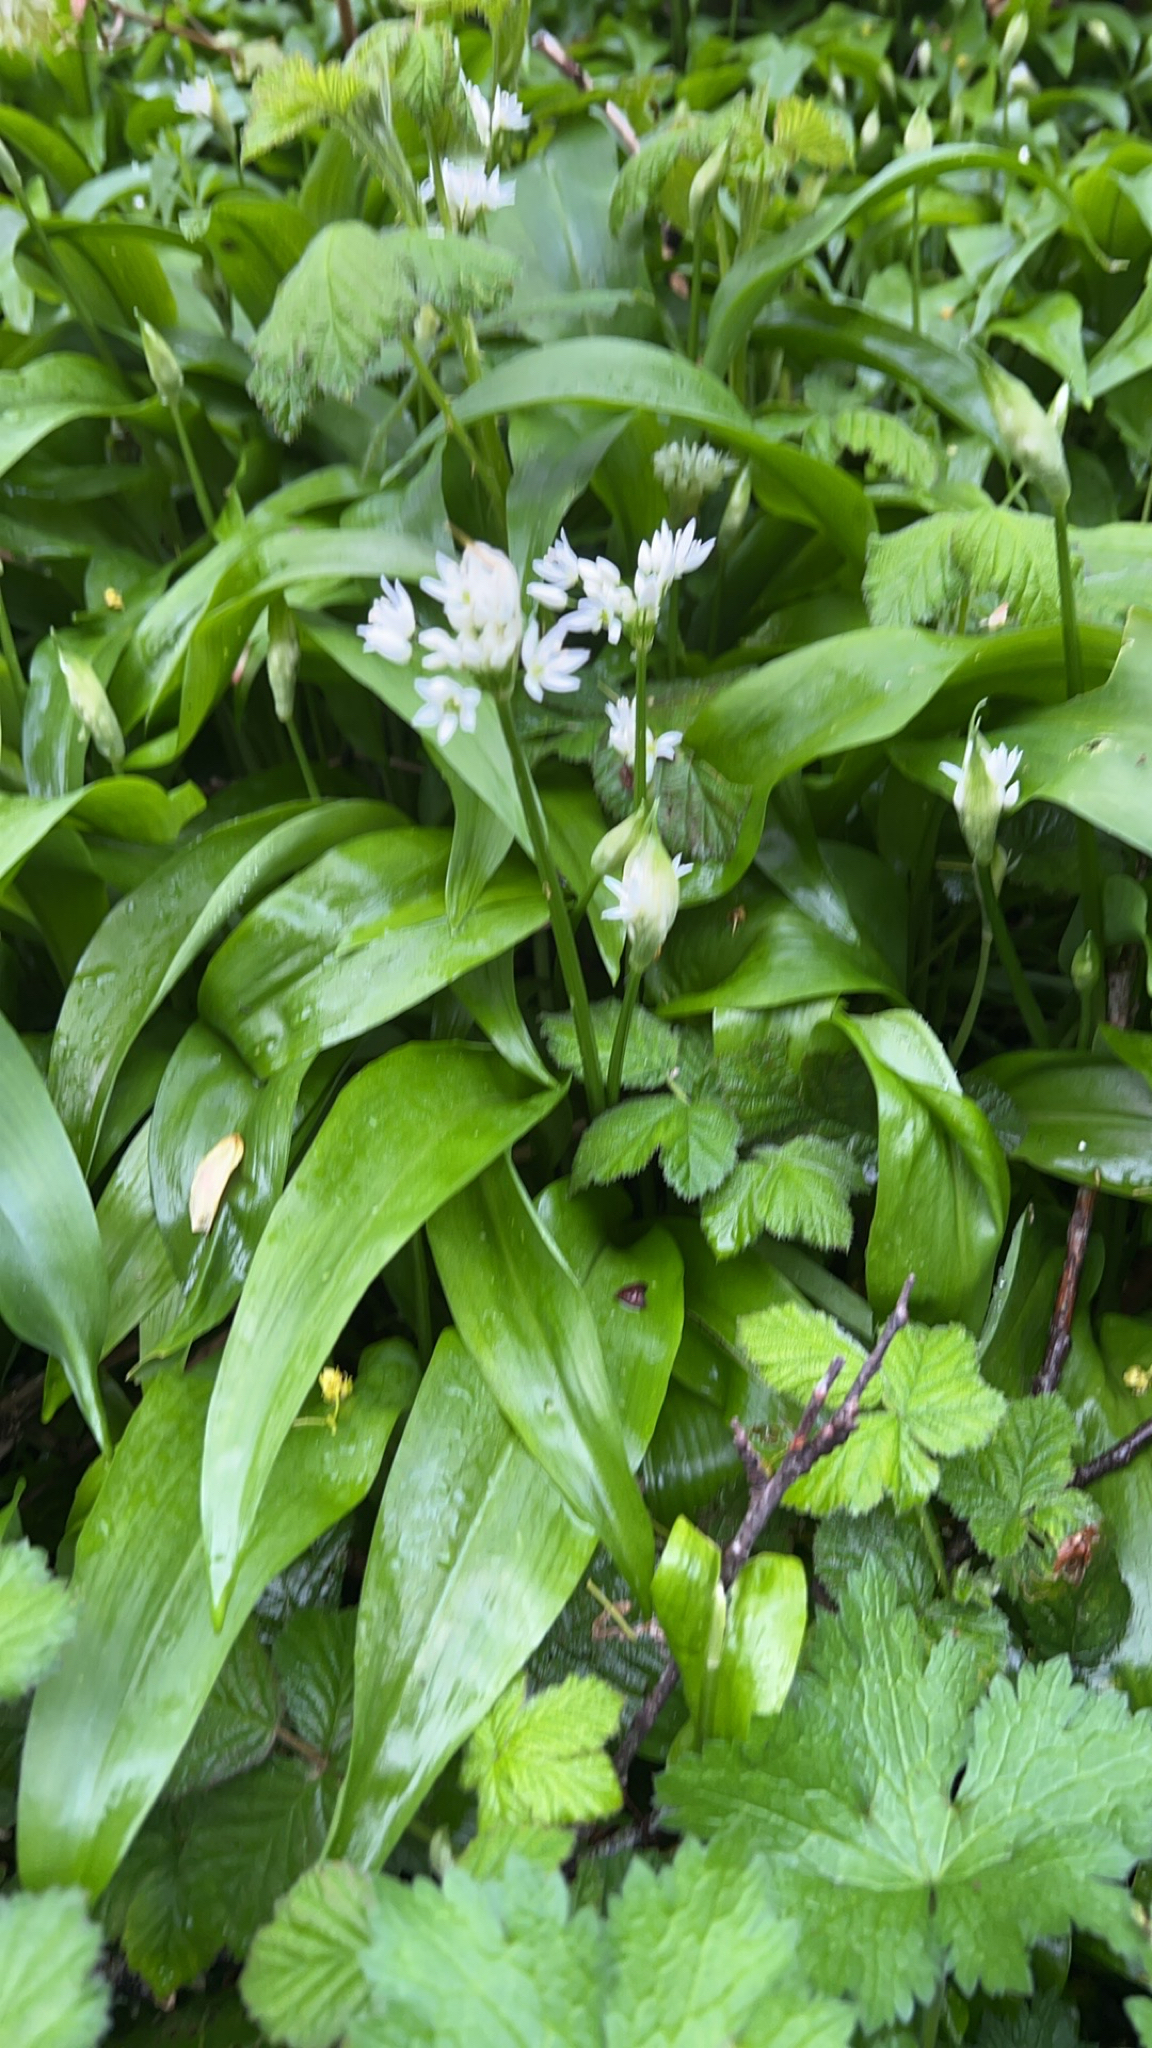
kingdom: Plantae
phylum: Tracheophyta
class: Liliopsida
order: Asparagales
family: Amaryllidaceae
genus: Allium
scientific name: Allium ursinum
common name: Ramsons
